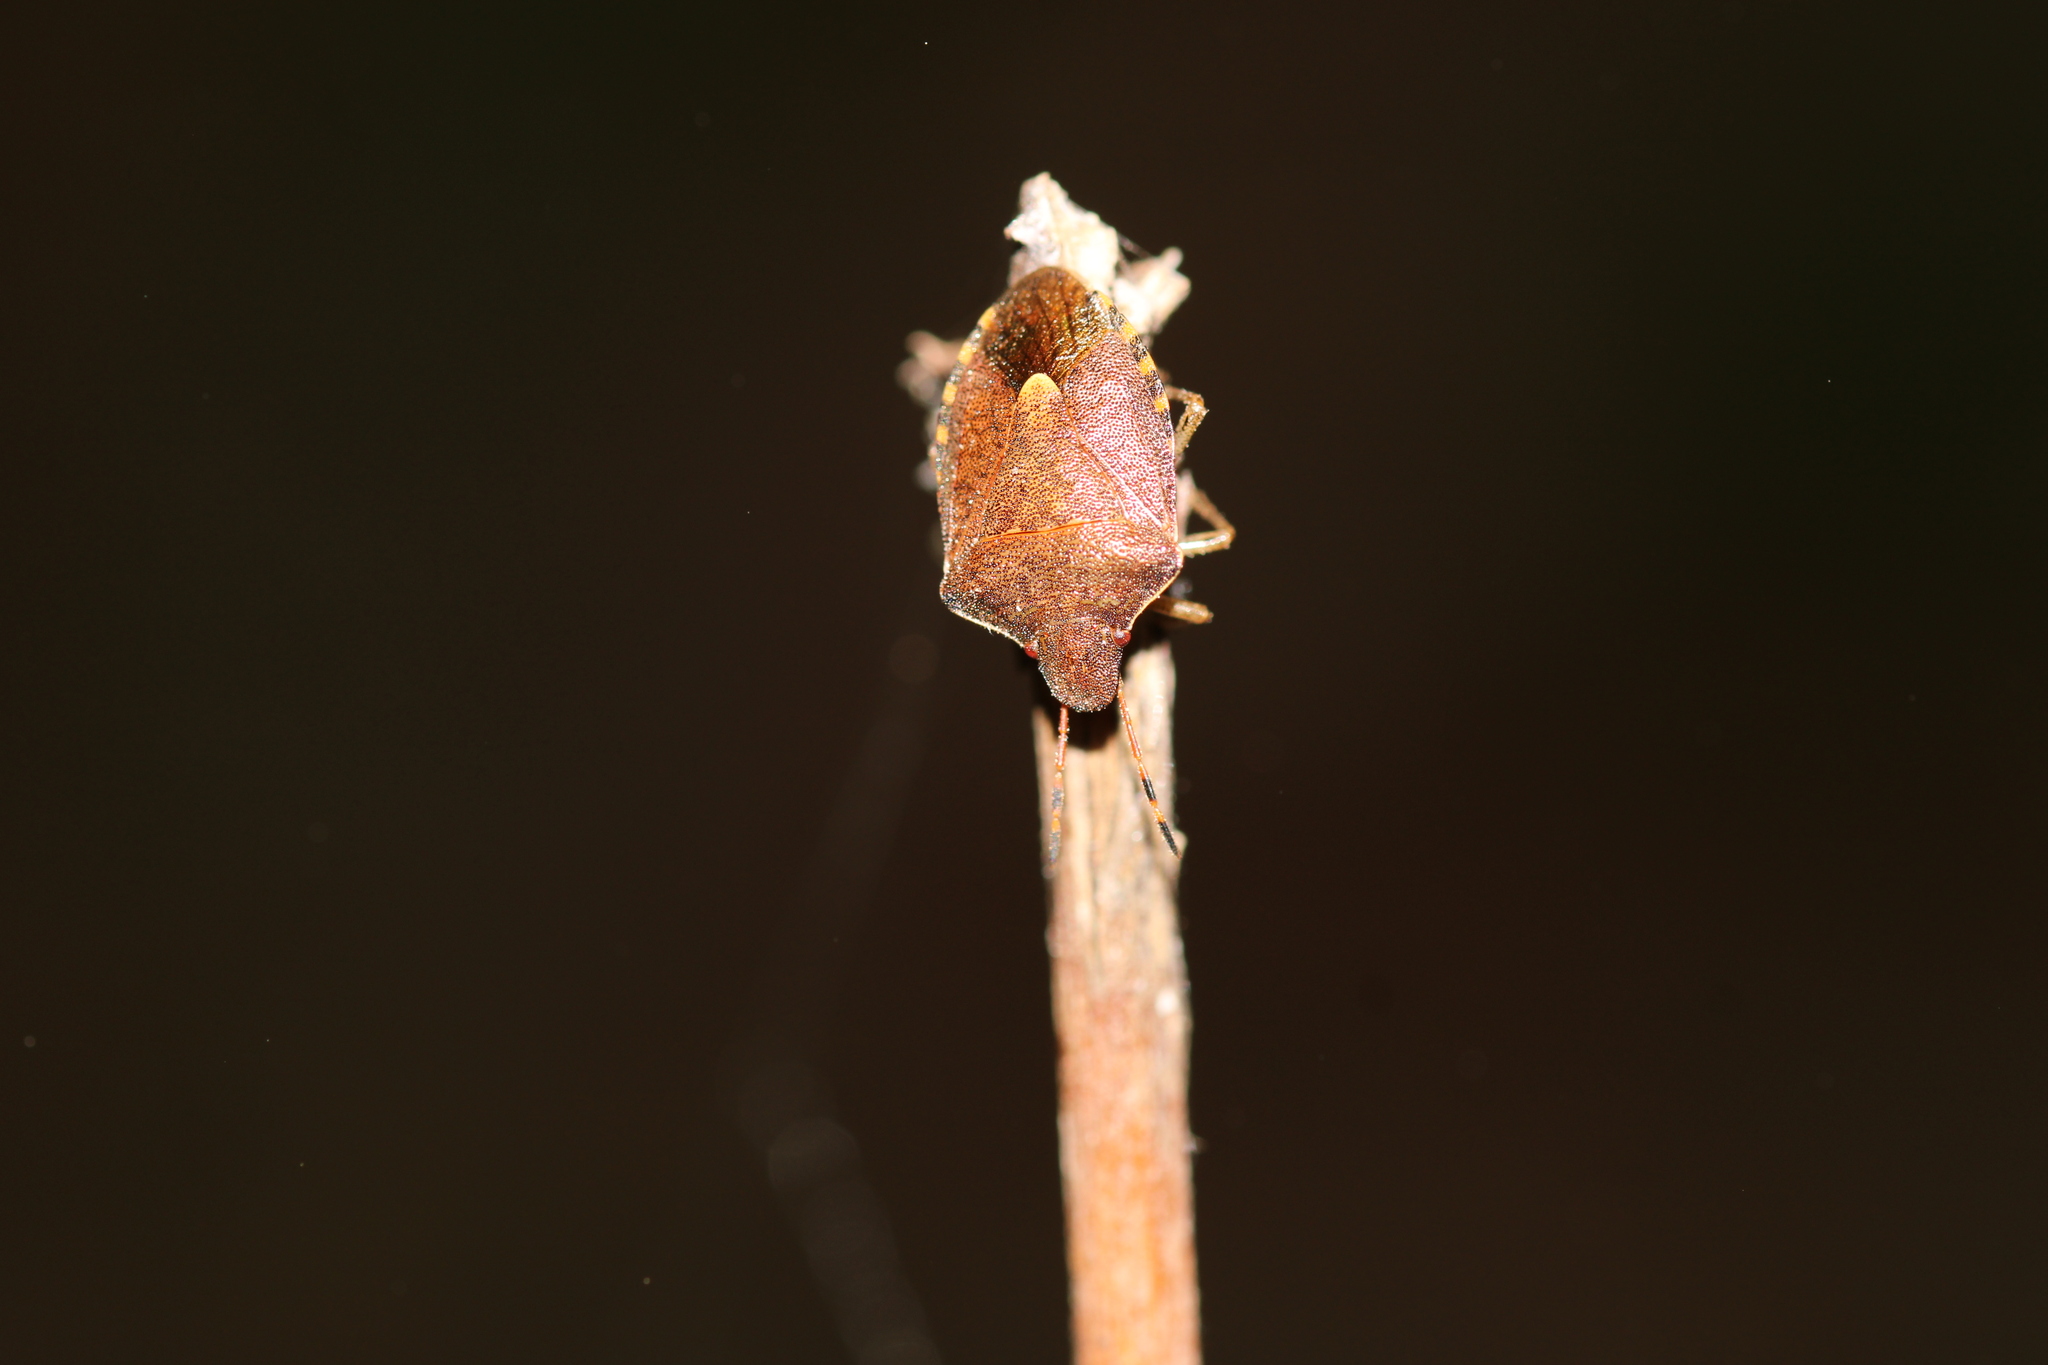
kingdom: Animalia
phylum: Arthropoda
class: Insecta
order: Hemiptera
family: Pentatomidae
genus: Holcostethus
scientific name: Holcostethus strictus
